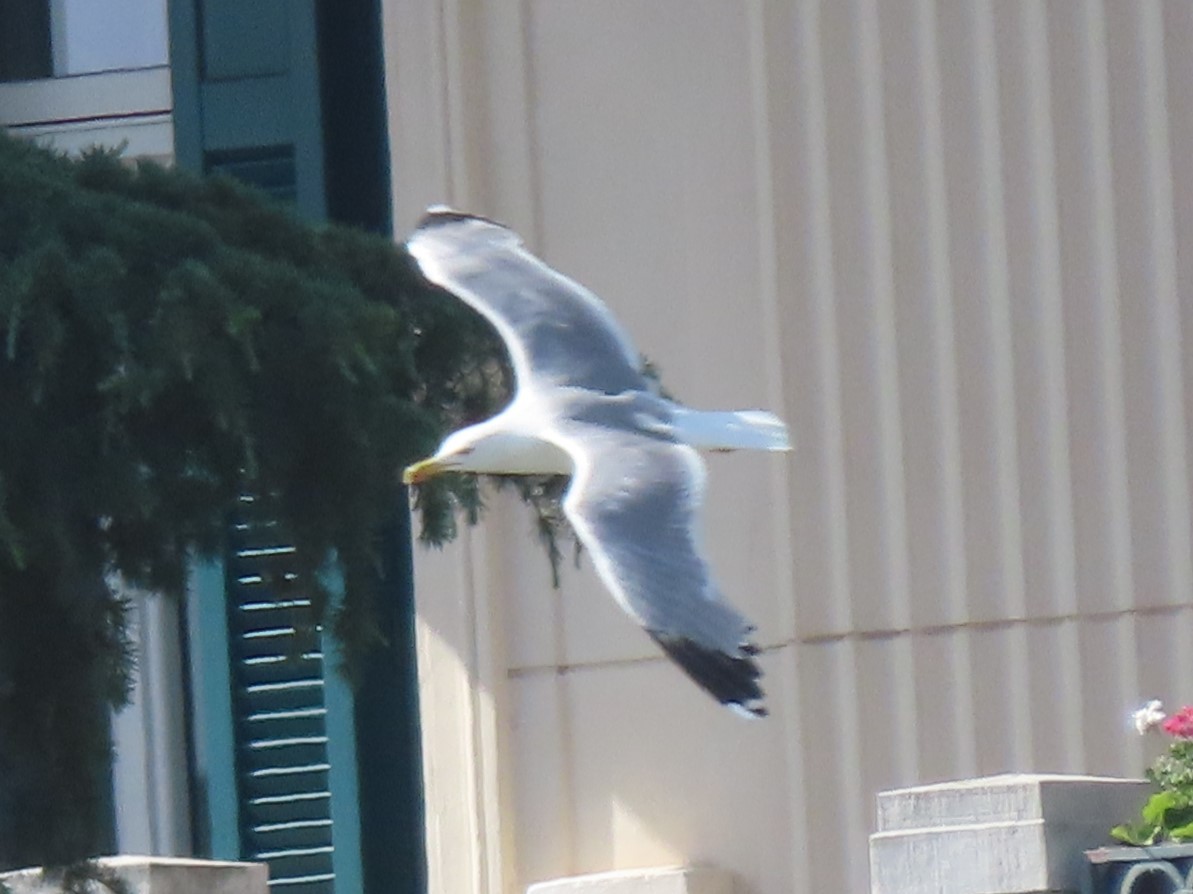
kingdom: Animalia
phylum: Chordata
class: Aves
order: Charadriiformes
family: Laridae
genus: Larus
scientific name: Larus michahellis
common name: Yellow-legged gull
